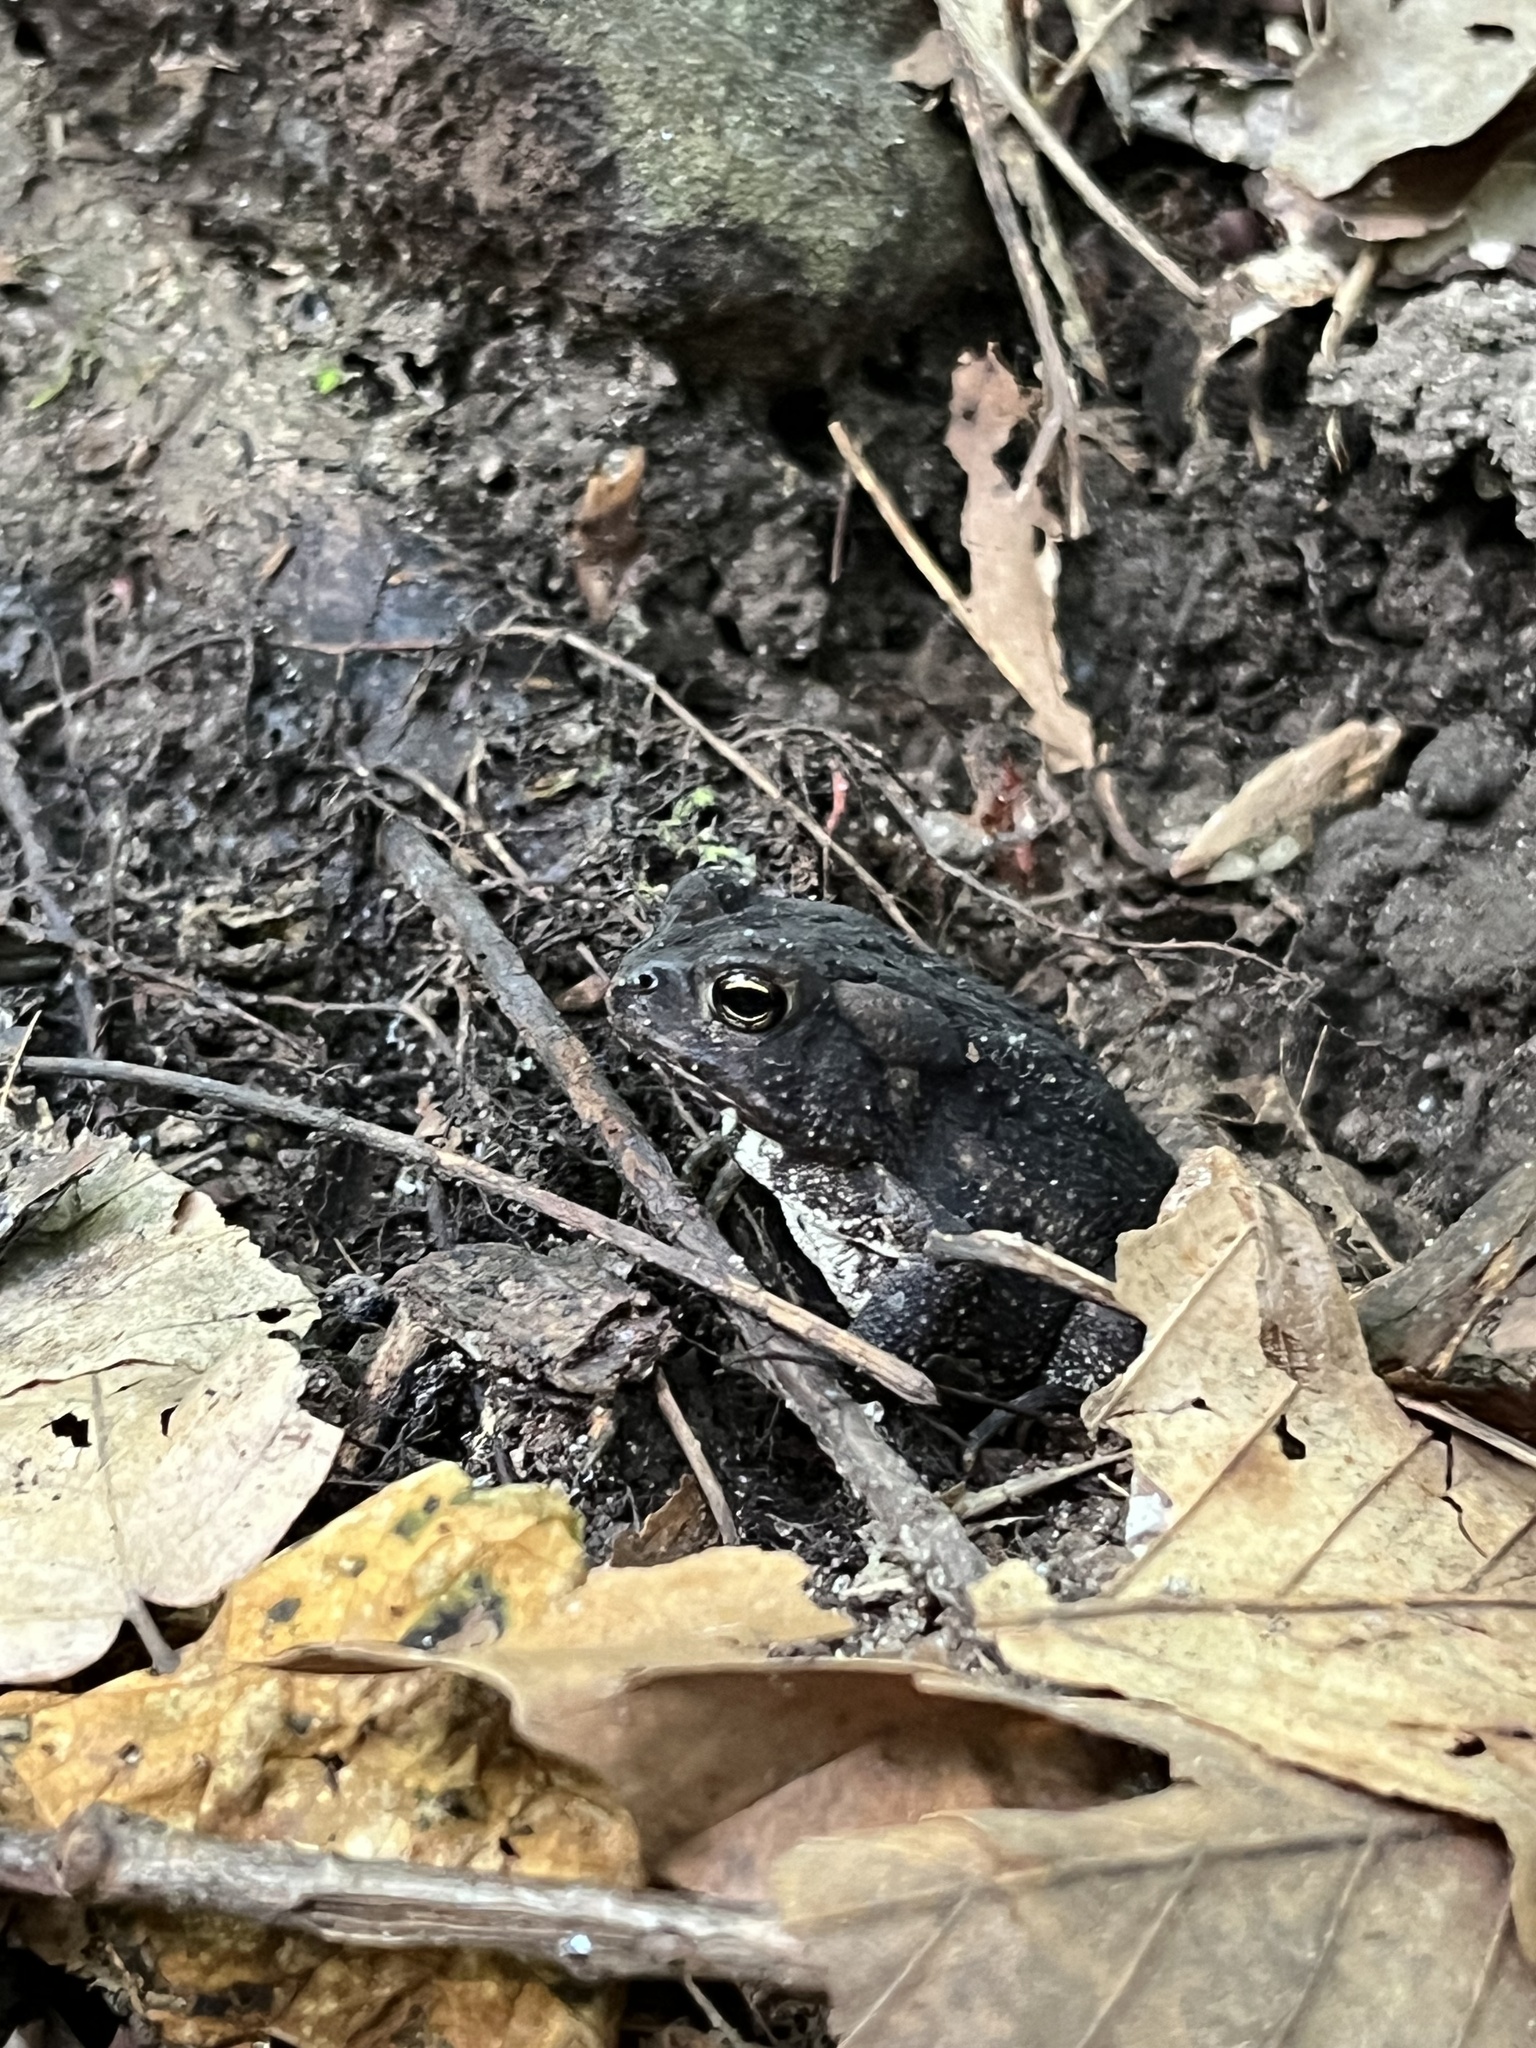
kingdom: Animalia
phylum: Chordata
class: Amphibia
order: Anura
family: Bufonidae
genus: Anaxyrus
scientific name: Anaxyrus fowleri
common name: Fowler's toad
